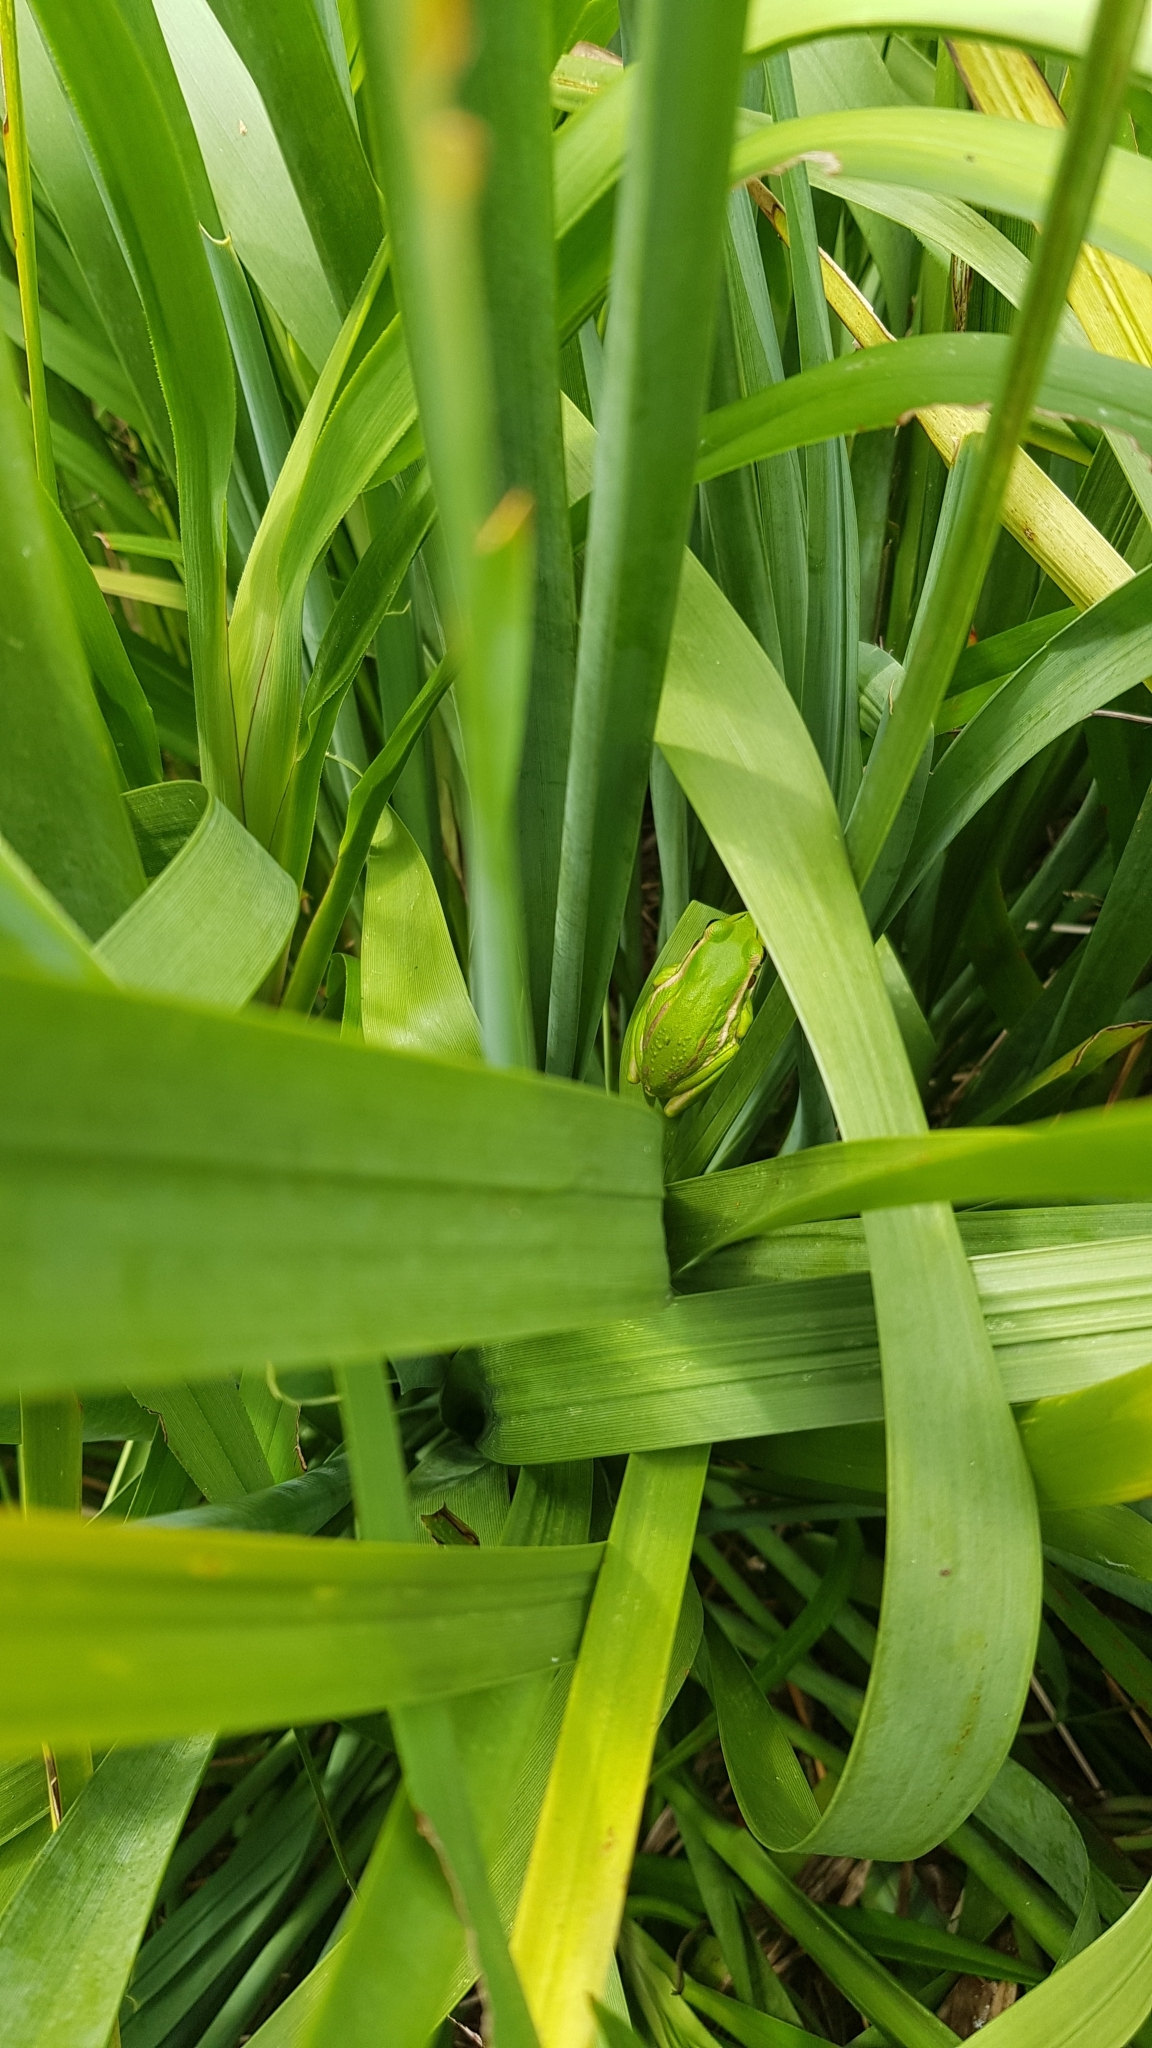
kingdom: Animalia
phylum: Chordata
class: Amphibia
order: Anura
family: Pelodryadidae
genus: Ranoidea
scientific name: Ranoidea aurea
